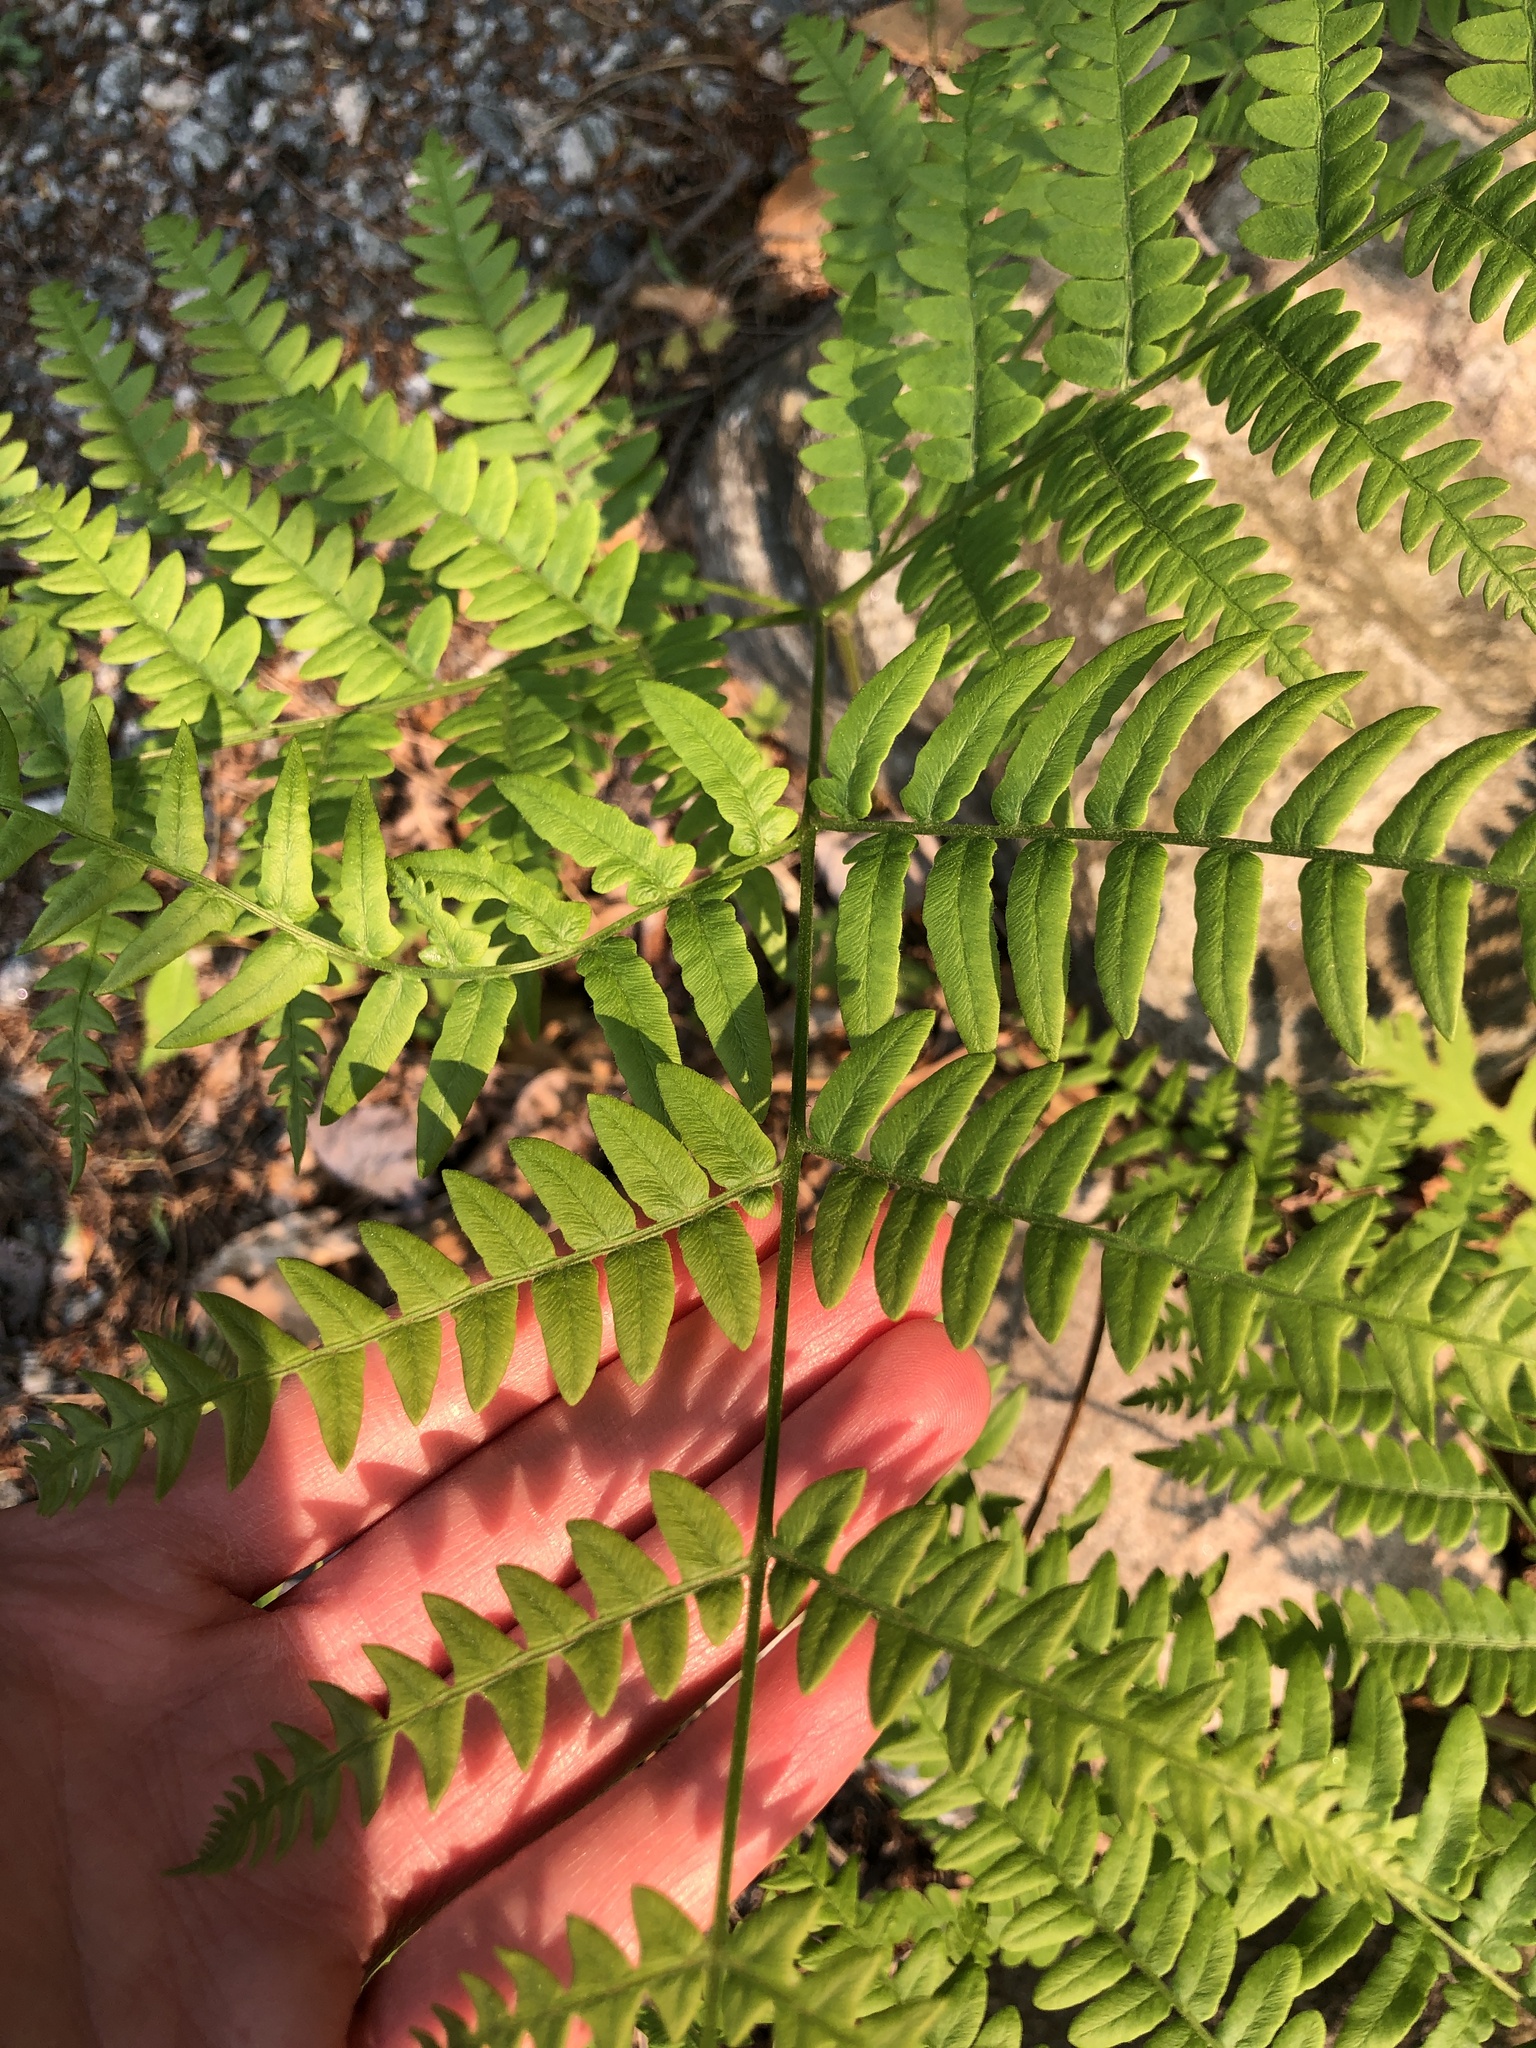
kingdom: Plantae
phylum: Tracheophyta
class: Polypodiopsida
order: Polypodiales
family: Dennstaedtiaceae
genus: Pteridium
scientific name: Pteridium aquilinum
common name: Bracken
